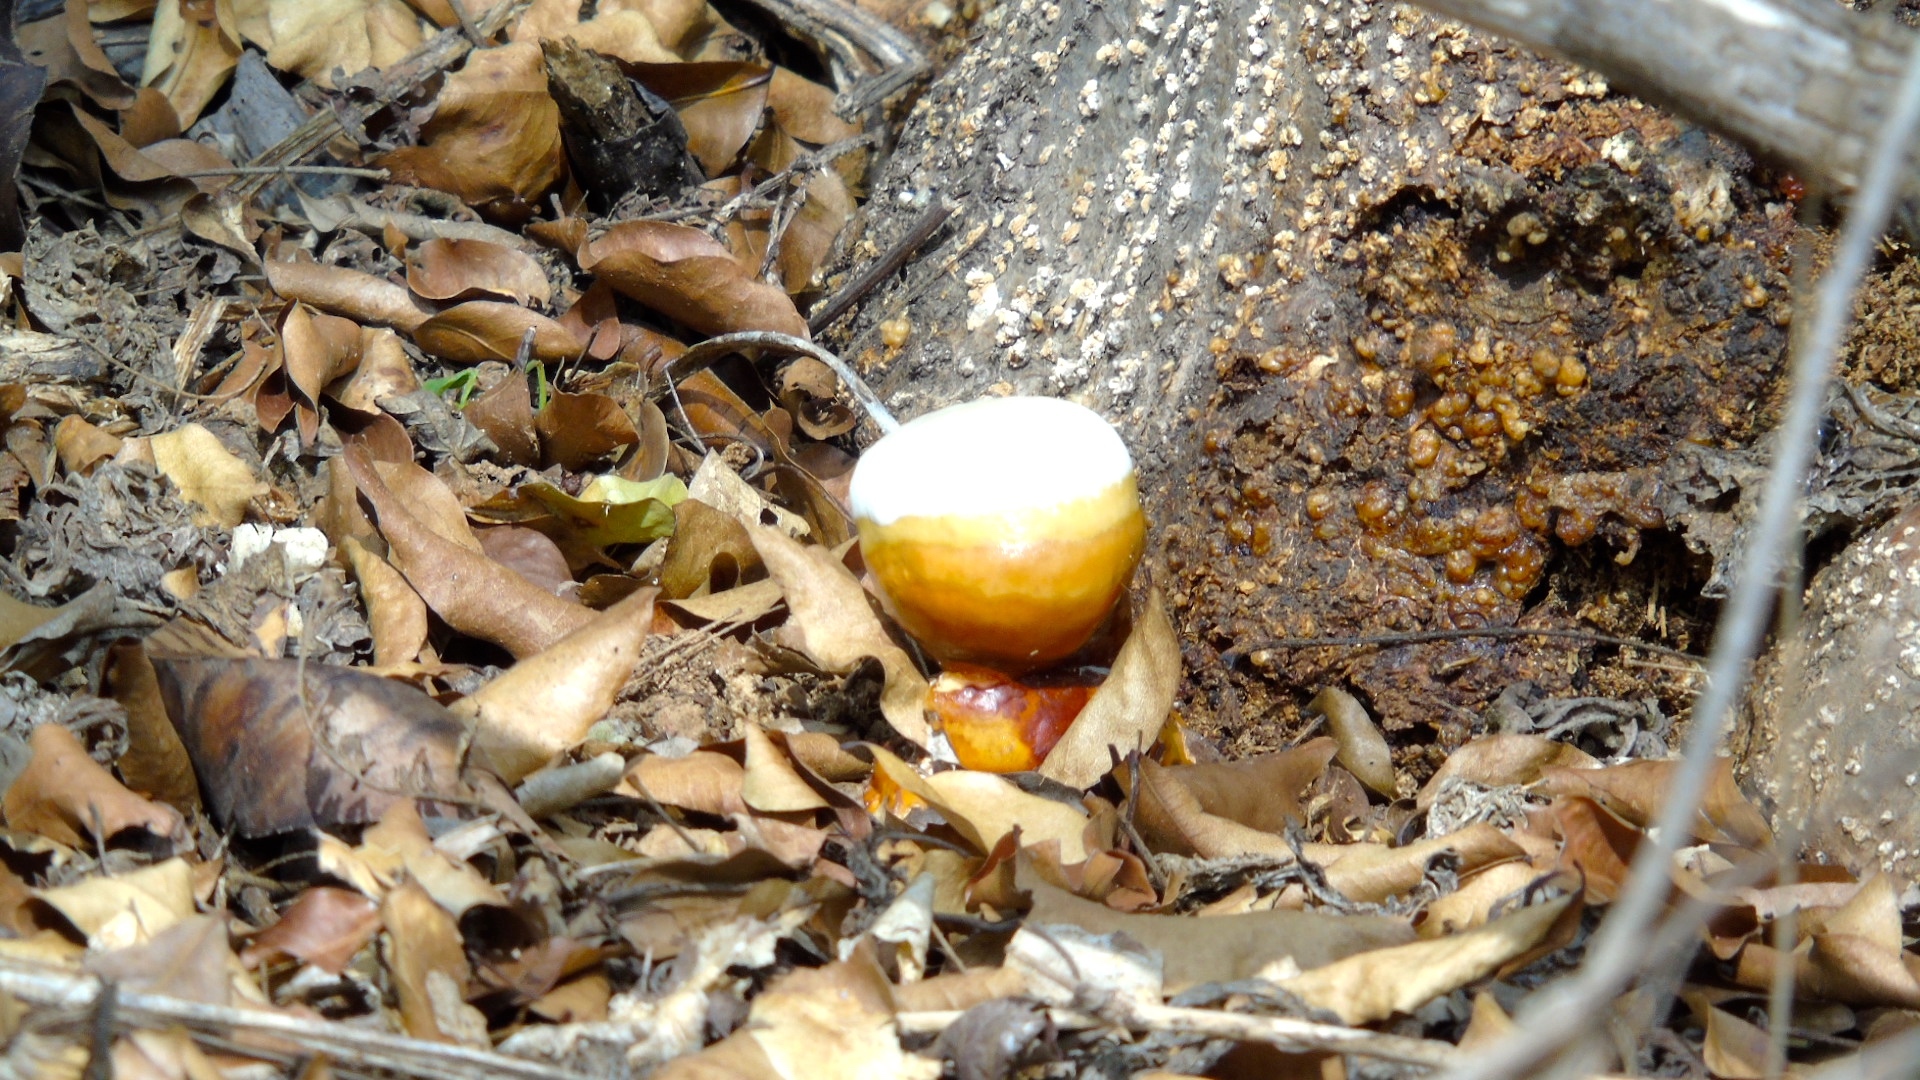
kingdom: Fungi
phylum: Basidiomycota
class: Agaricomycetes
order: Polyporales
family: Polyporaceae
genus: Ganoderma
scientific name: Ganoderma
